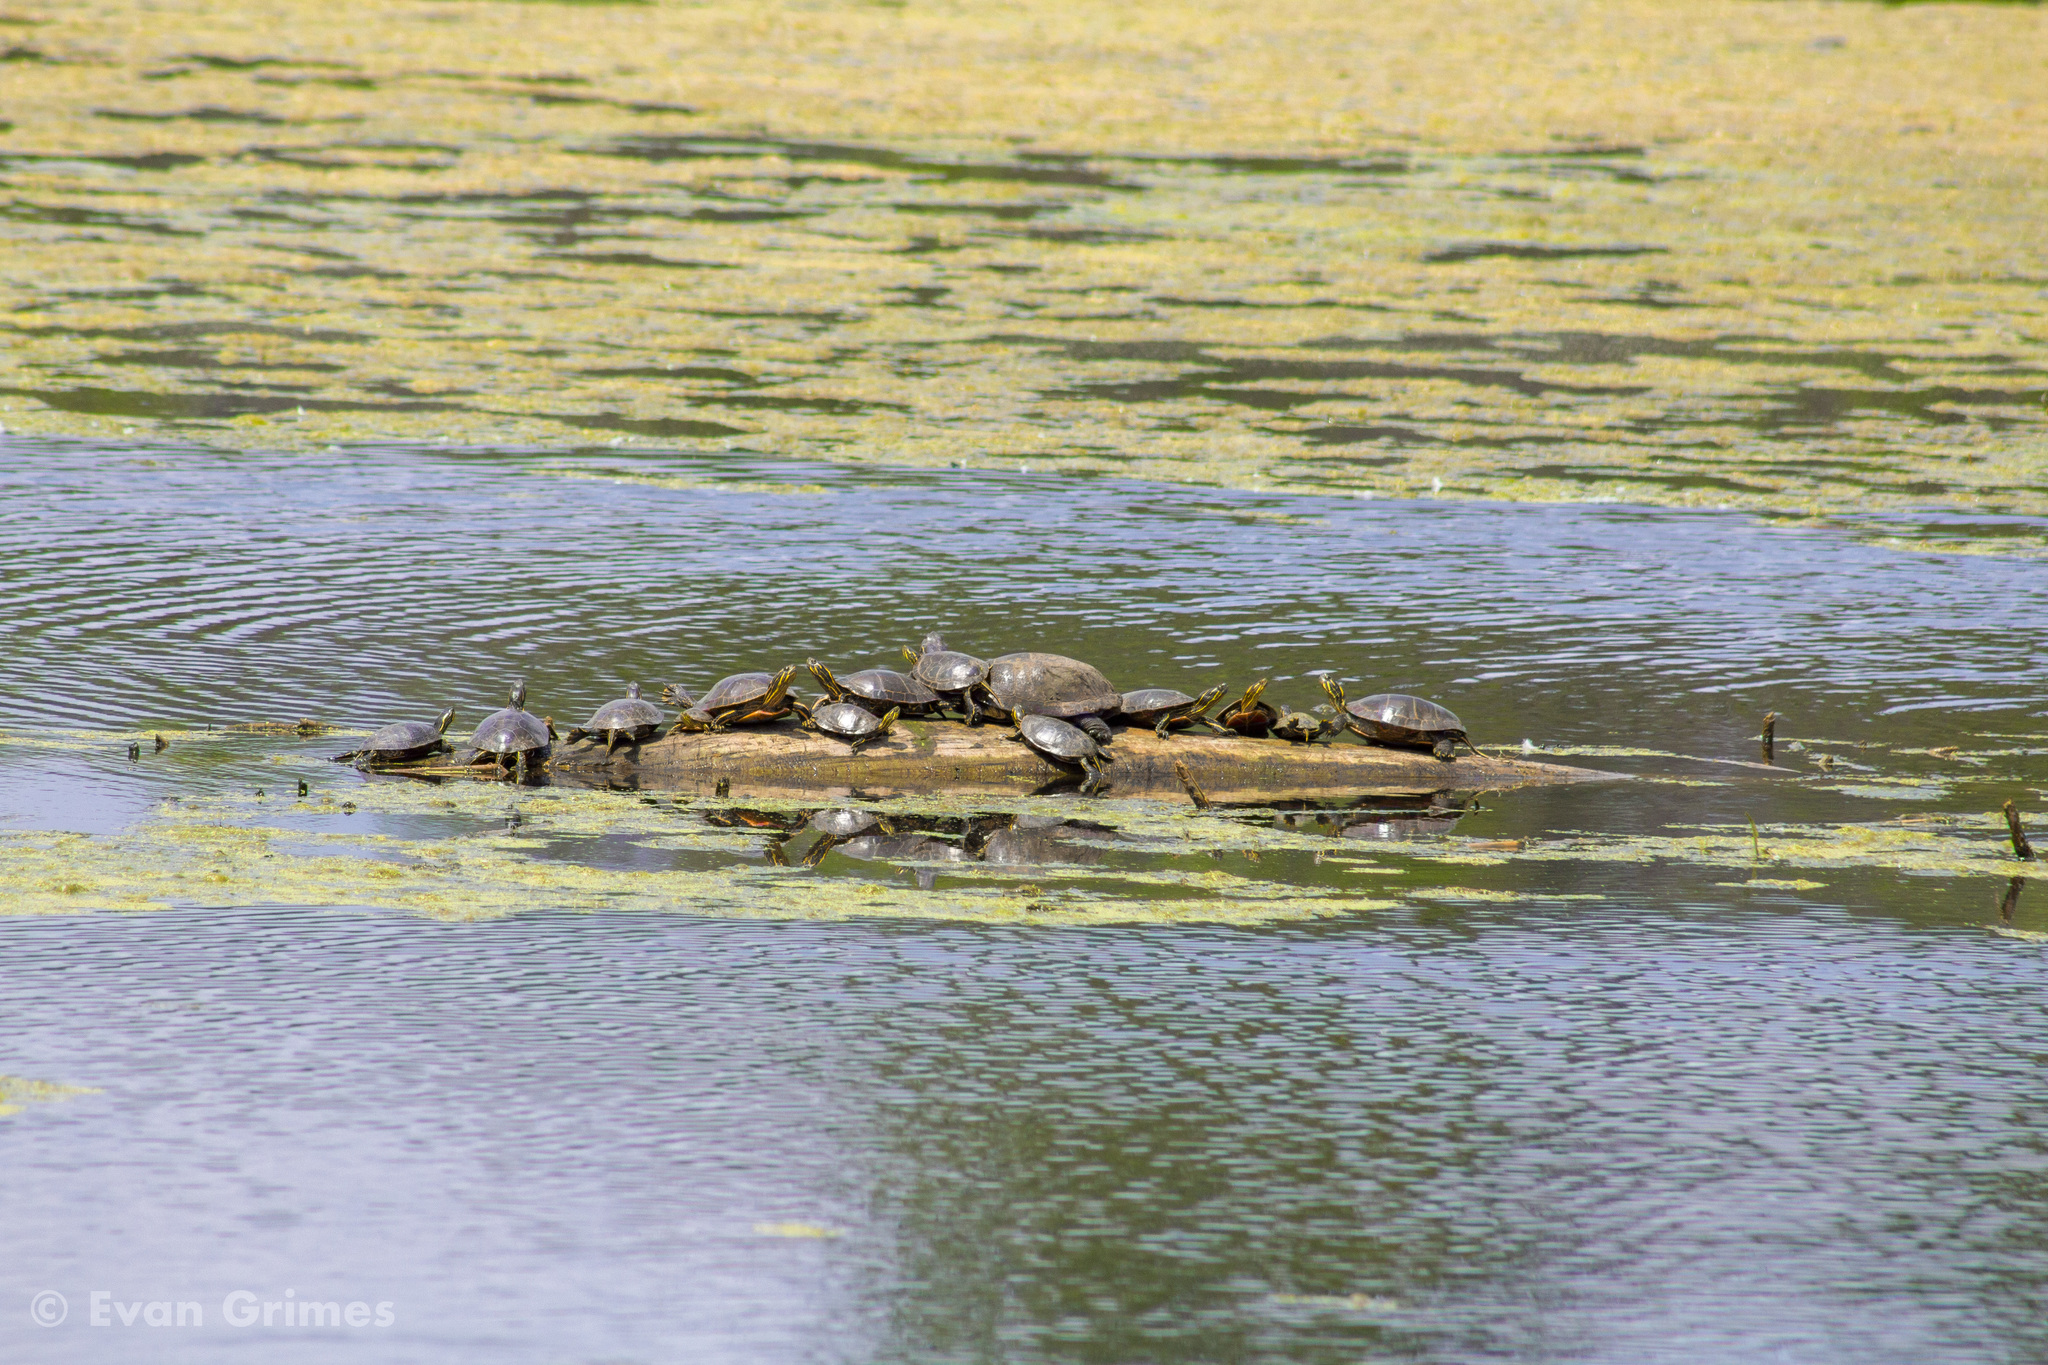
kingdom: Animalia
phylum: Chordata
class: Testudines
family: Emydidae
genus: Chrysemys
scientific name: Chrysemys picta
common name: Painted turtle
